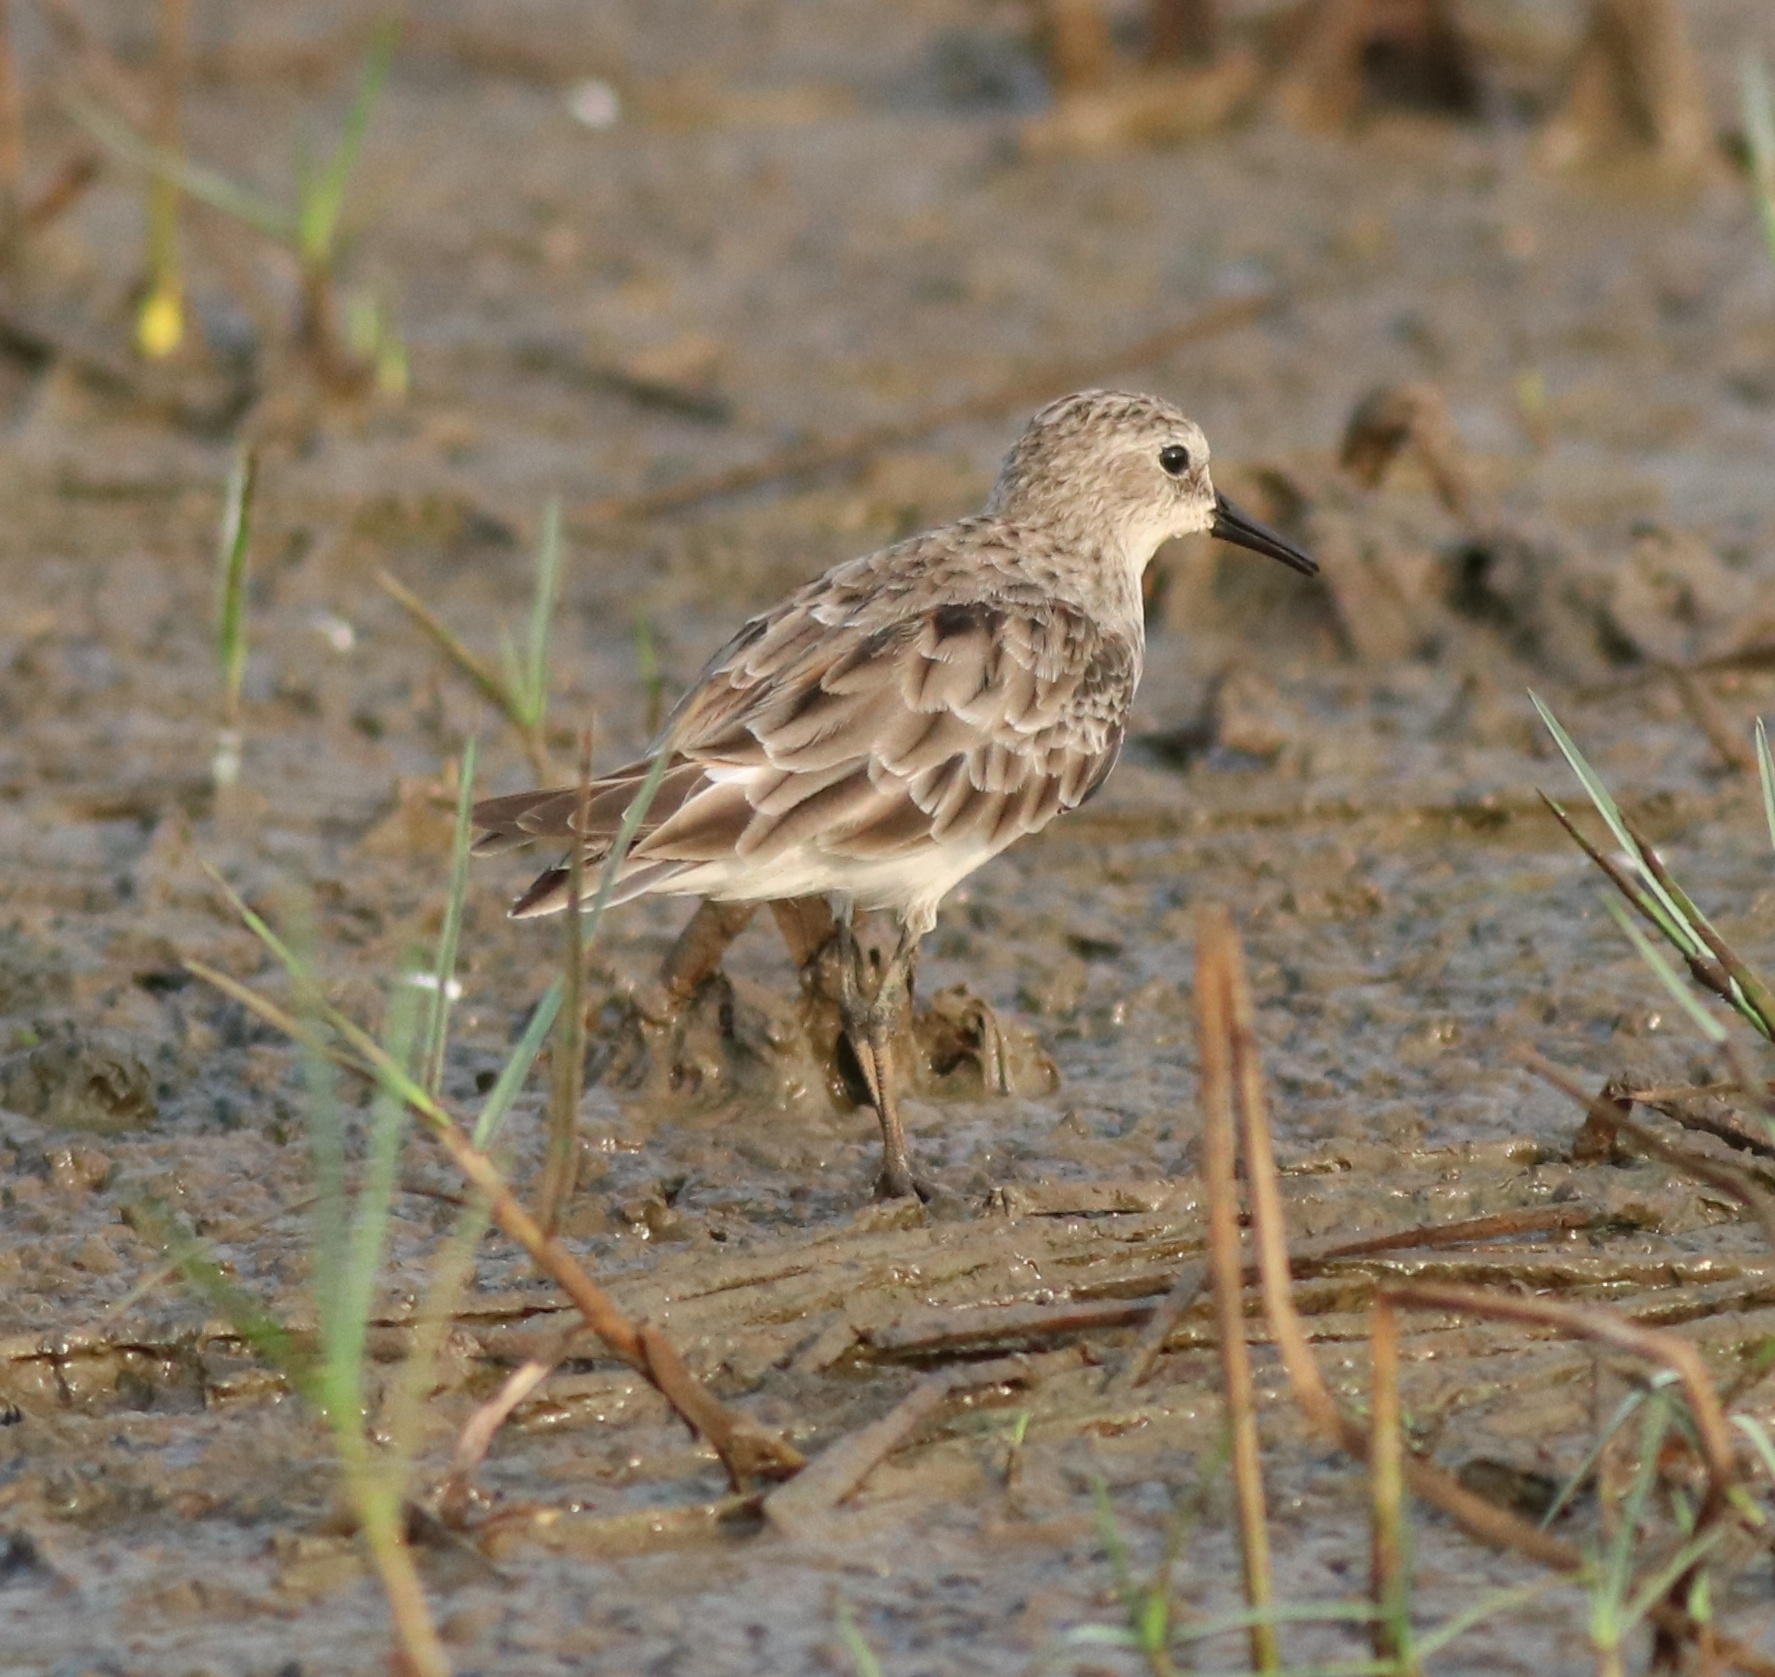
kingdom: Animalia
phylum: Chordata
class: Aves
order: Charadriiformes
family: Scolopacidae
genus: Calidris
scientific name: Calidris minuta
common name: Little stint
